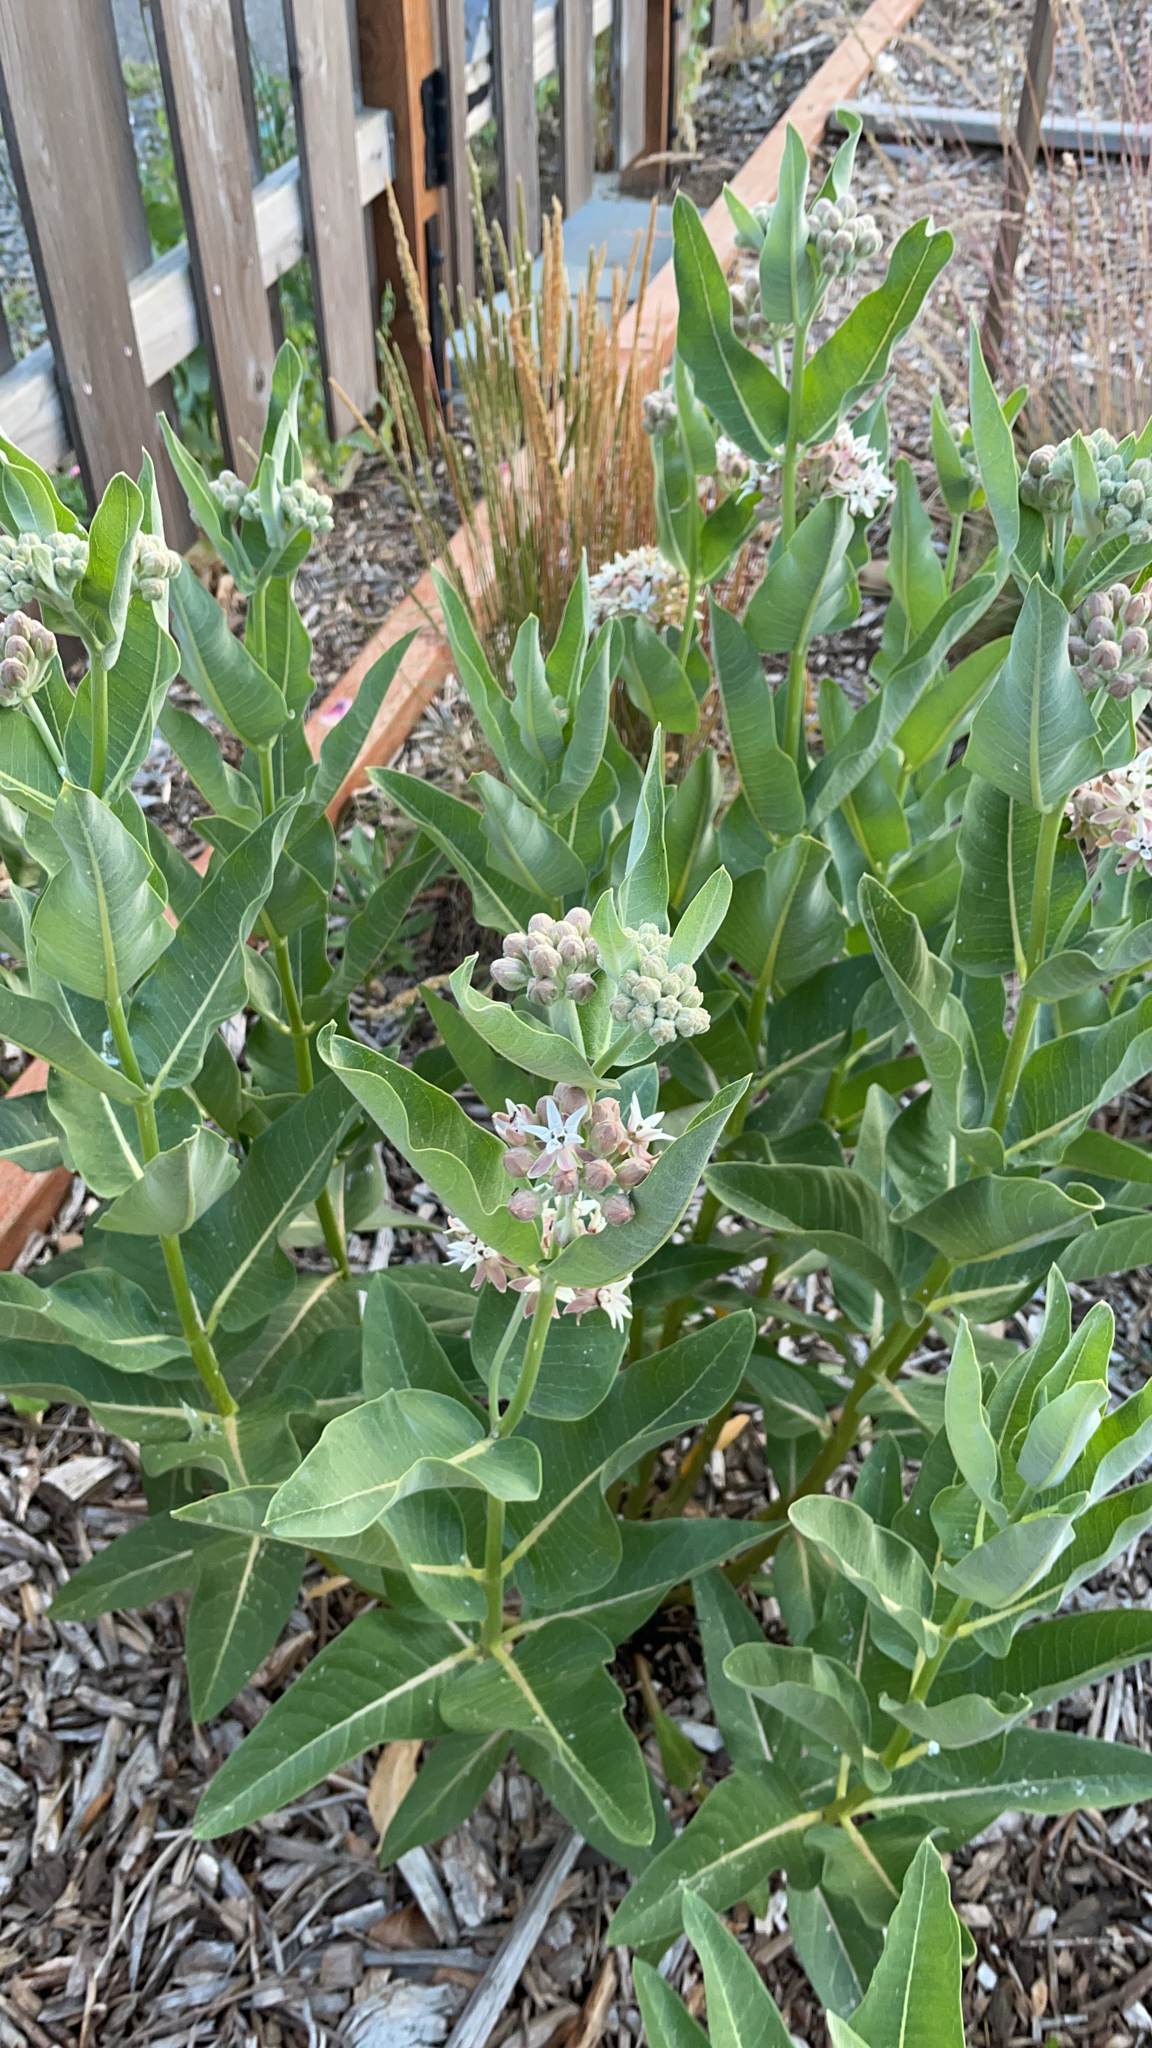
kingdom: Plantae
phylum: Tracheophyta
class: Magnoliopsida
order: Gentianales
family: Apocynaceae
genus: Asclepias
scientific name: Asclepias speciosa
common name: Showy milkweed
